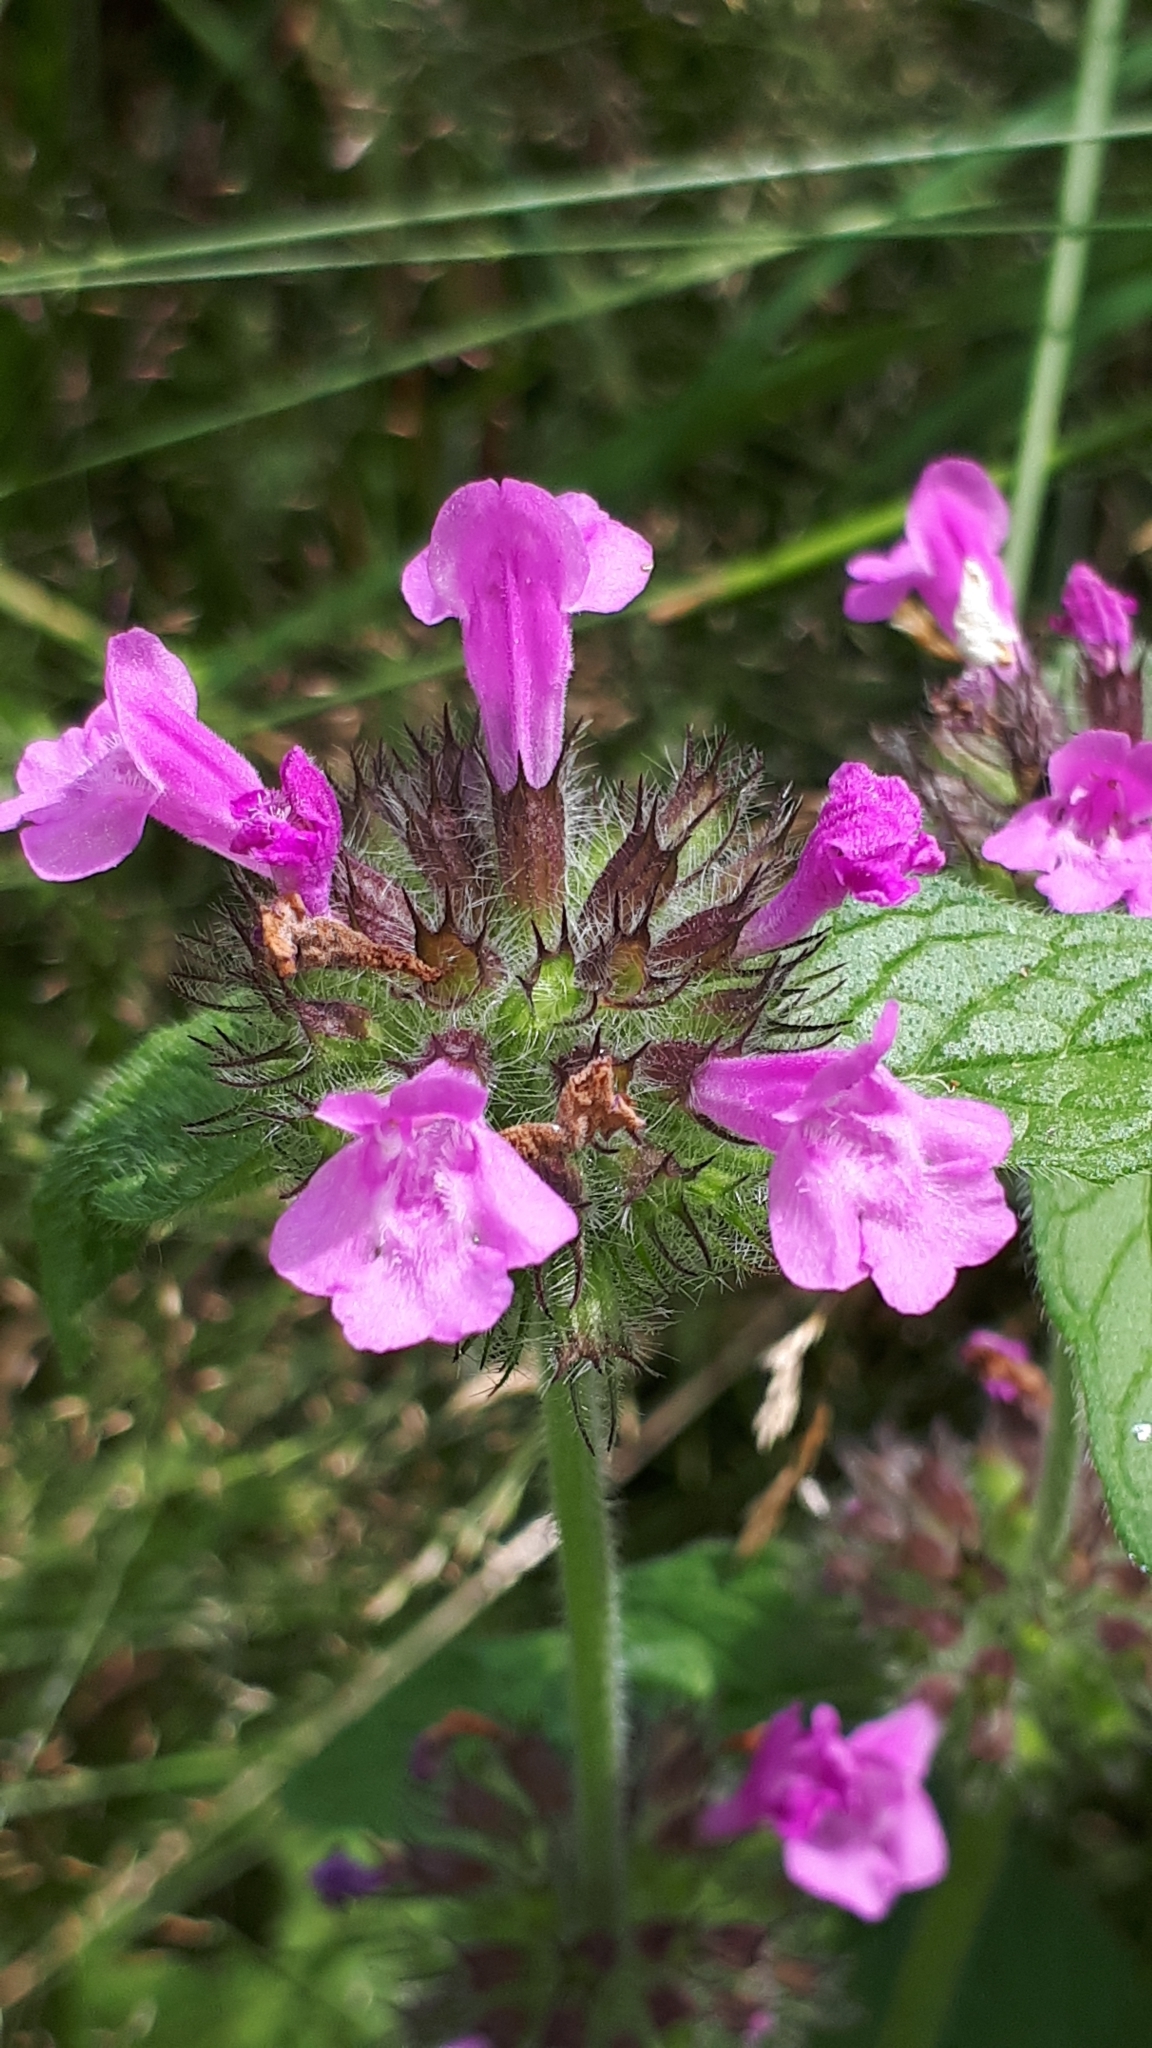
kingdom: Plantae
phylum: Tracheophyta
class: Magnoliopsida
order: Lamiales
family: Lamiaceae
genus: Clinopodium
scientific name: Clinopodium vulgare
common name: Wild basil
